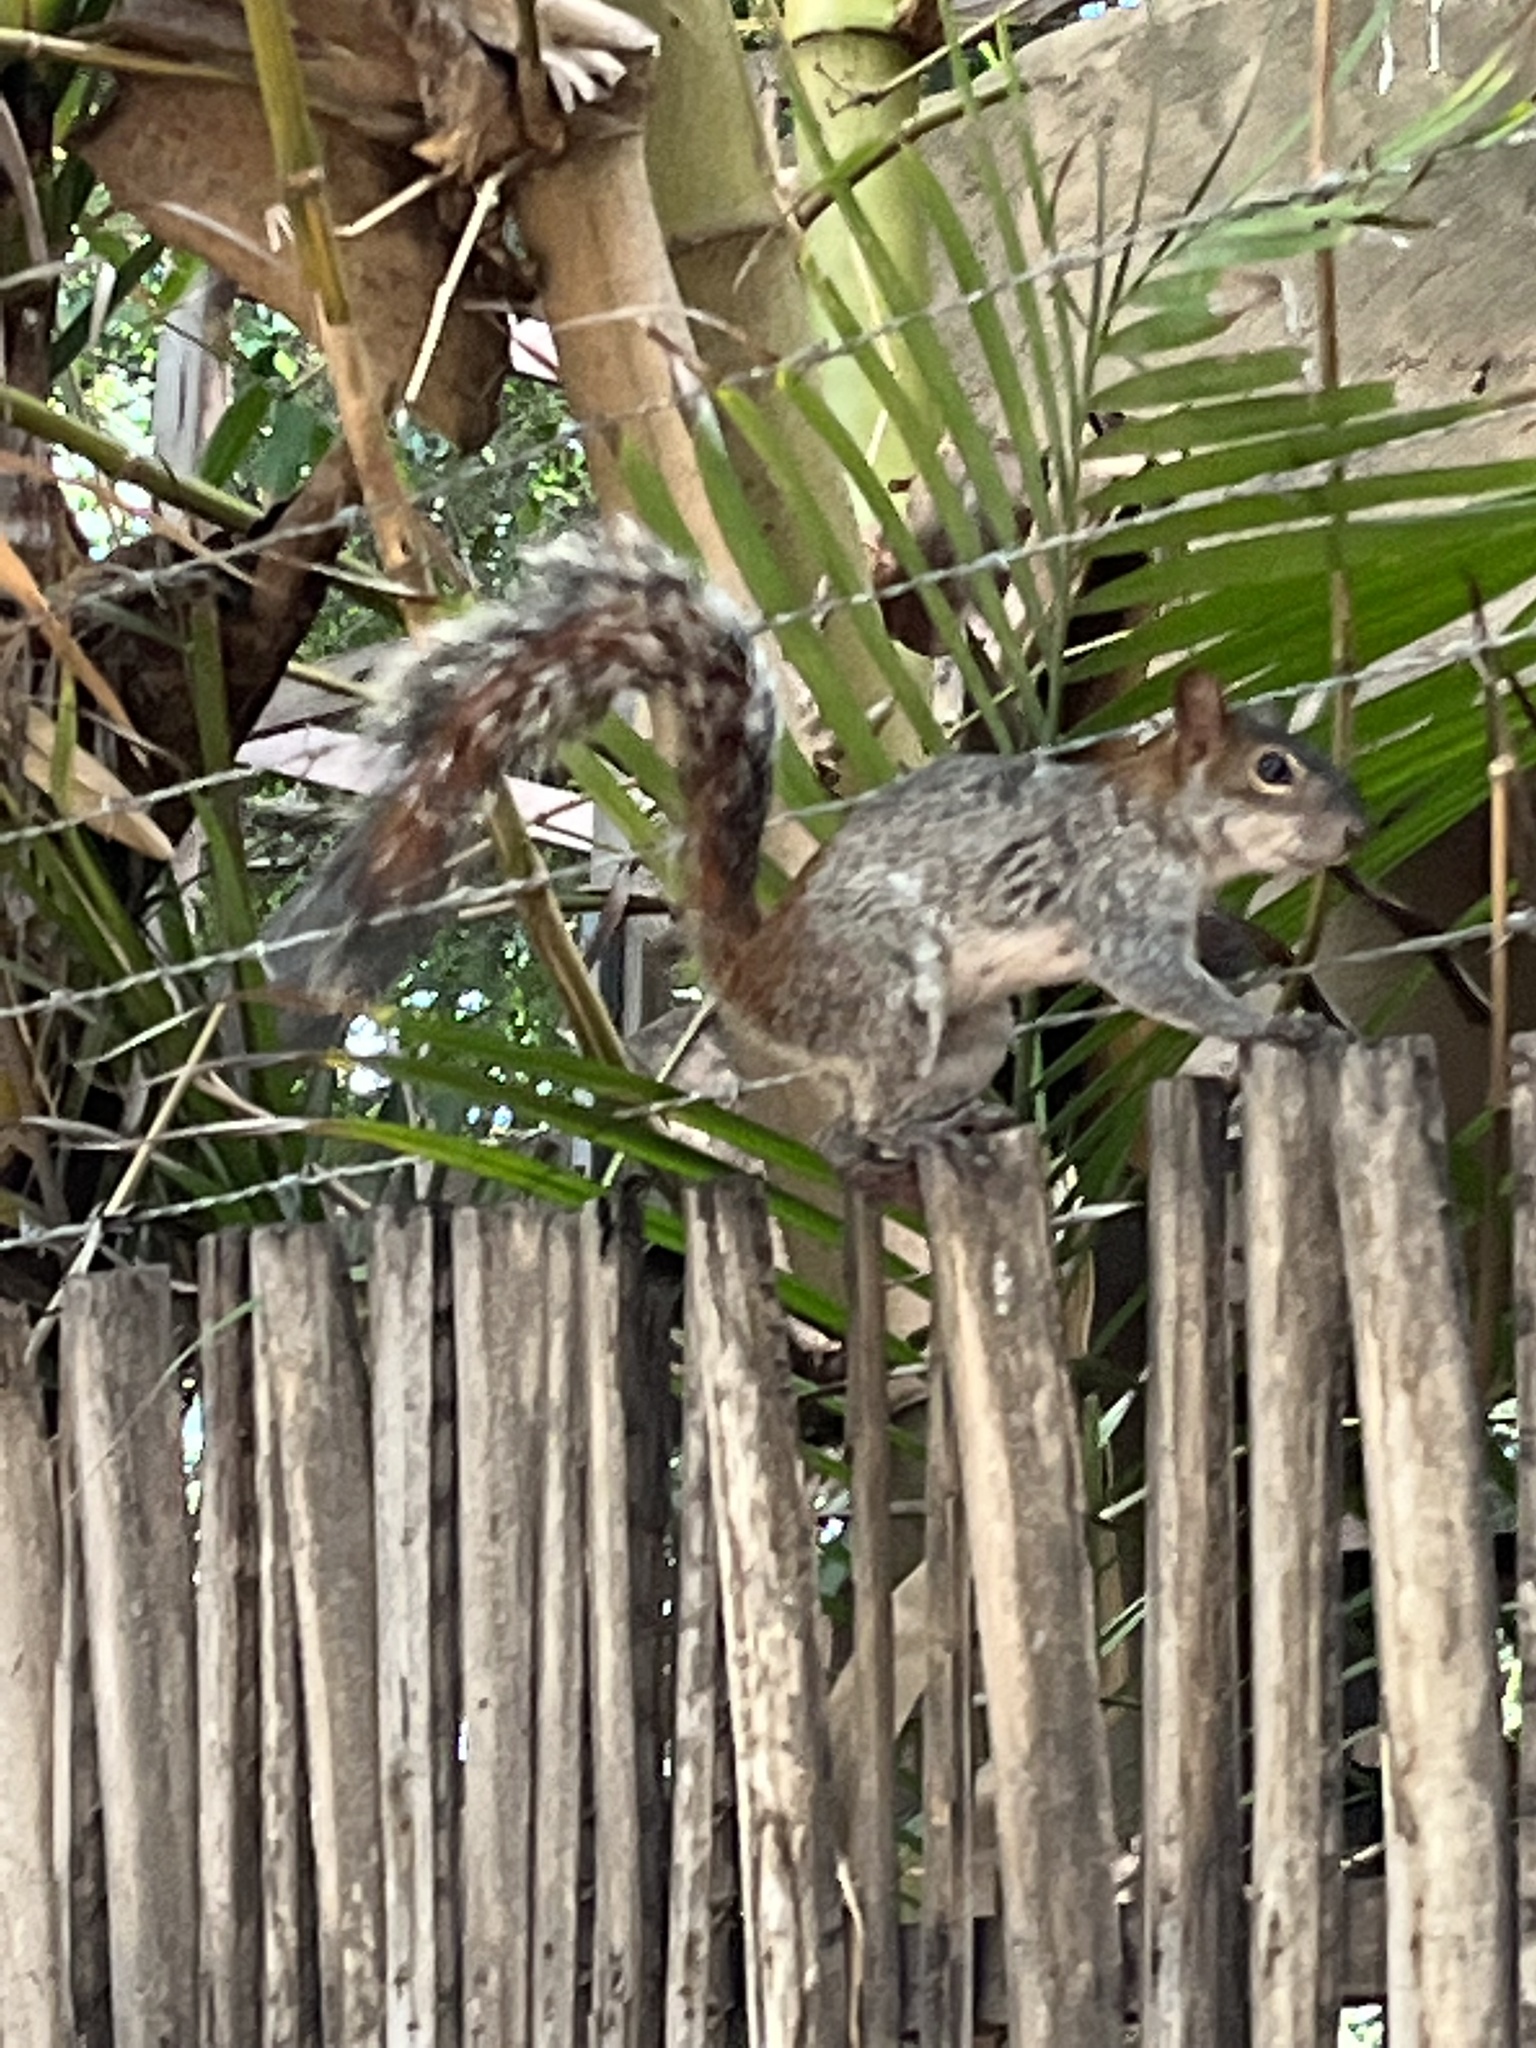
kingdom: Animalia
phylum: Chordata
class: Mammalia
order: Rodentia
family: Sciuridae
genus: Sciurus
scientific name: Sciurus aureogaster
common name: Red-bellied squirrel
